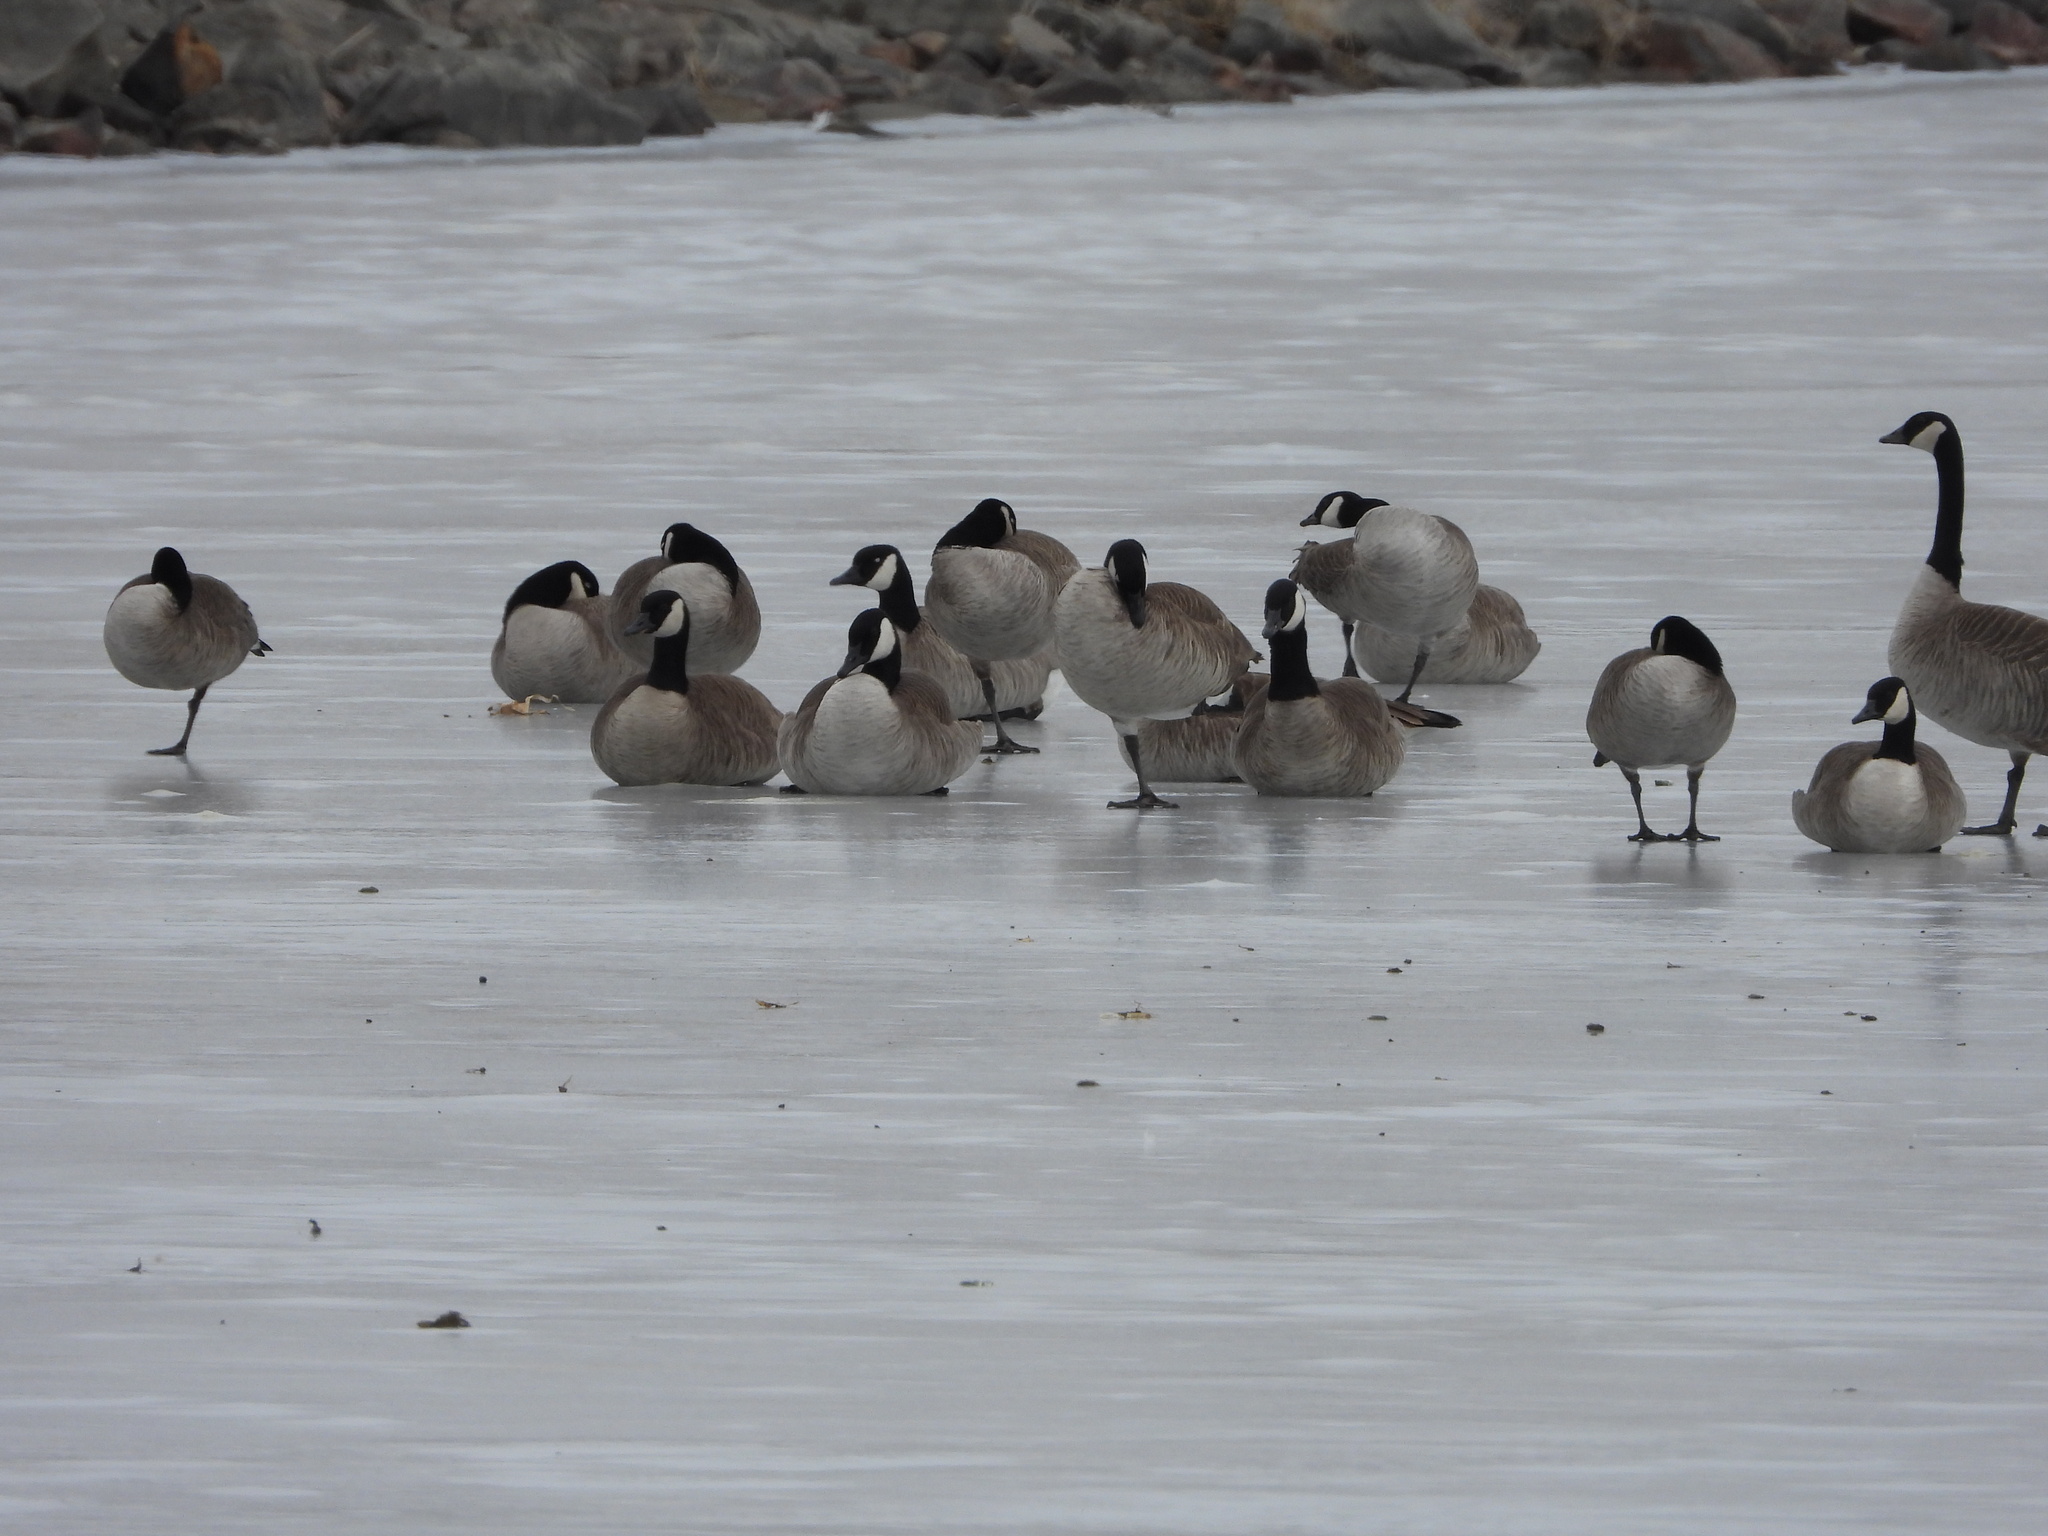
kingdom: Animalia
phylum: Chordata
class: Aves
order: Anseriformes
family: Anatidae
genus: Branta
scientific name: Branta canadensis
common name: Canada goose
